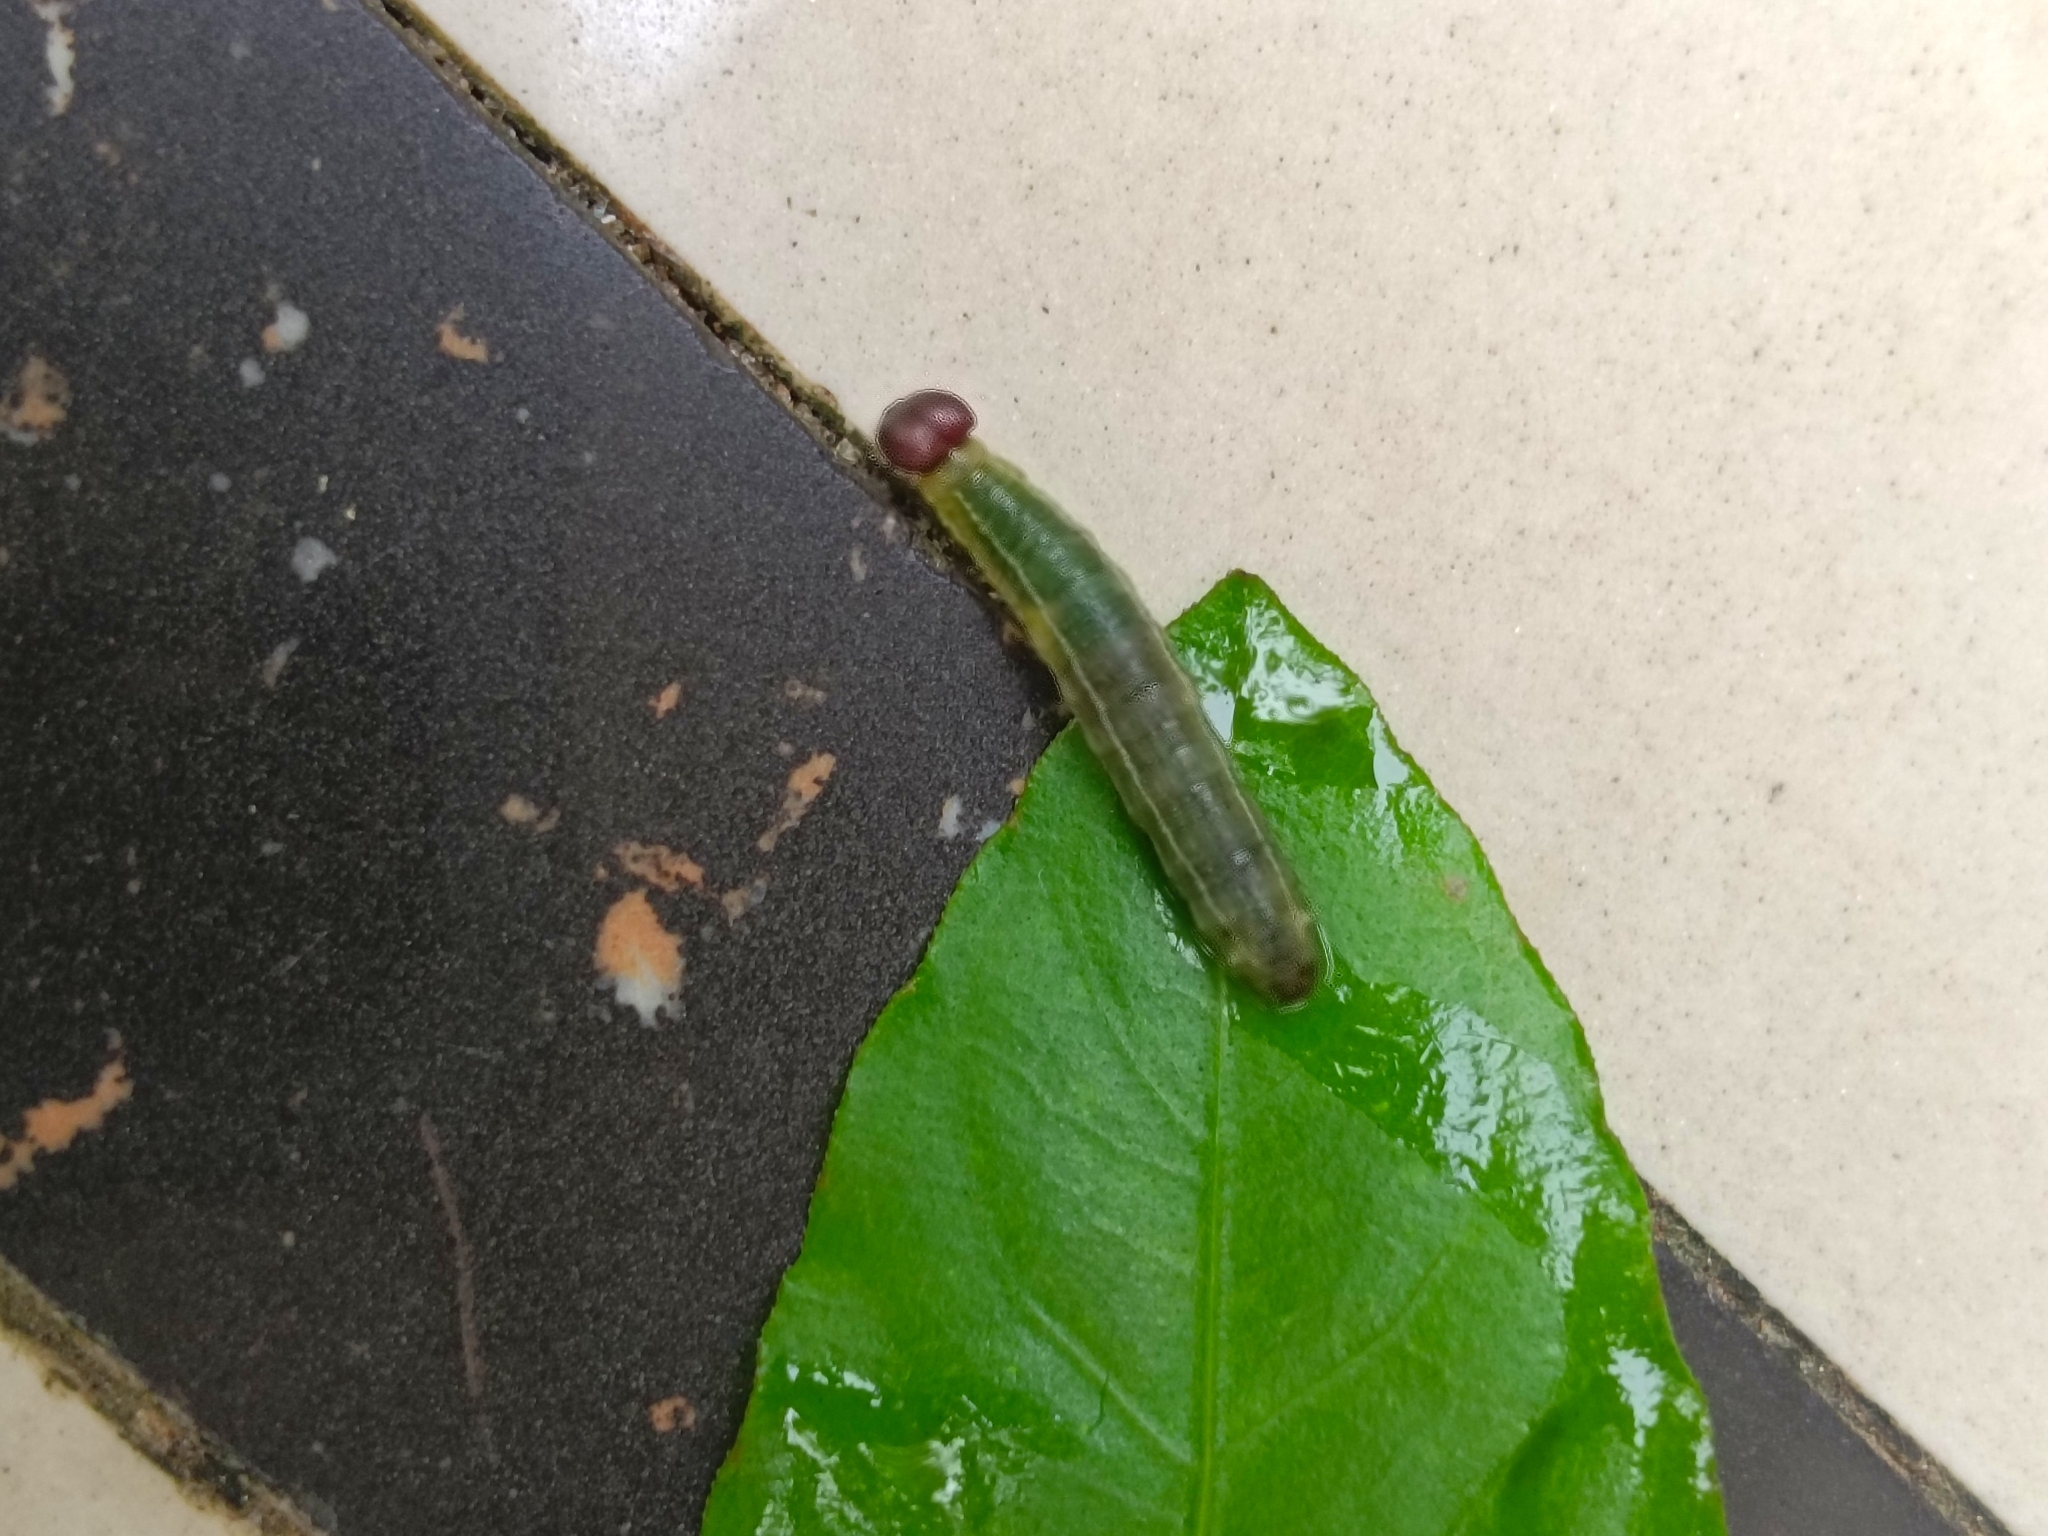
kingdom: Animalia
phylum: Arthropoda
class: Insecta
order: Lepidoptera
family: Hesperiidae
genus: Celaenorrhinus
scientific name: Celaenorrhinus leucocera
